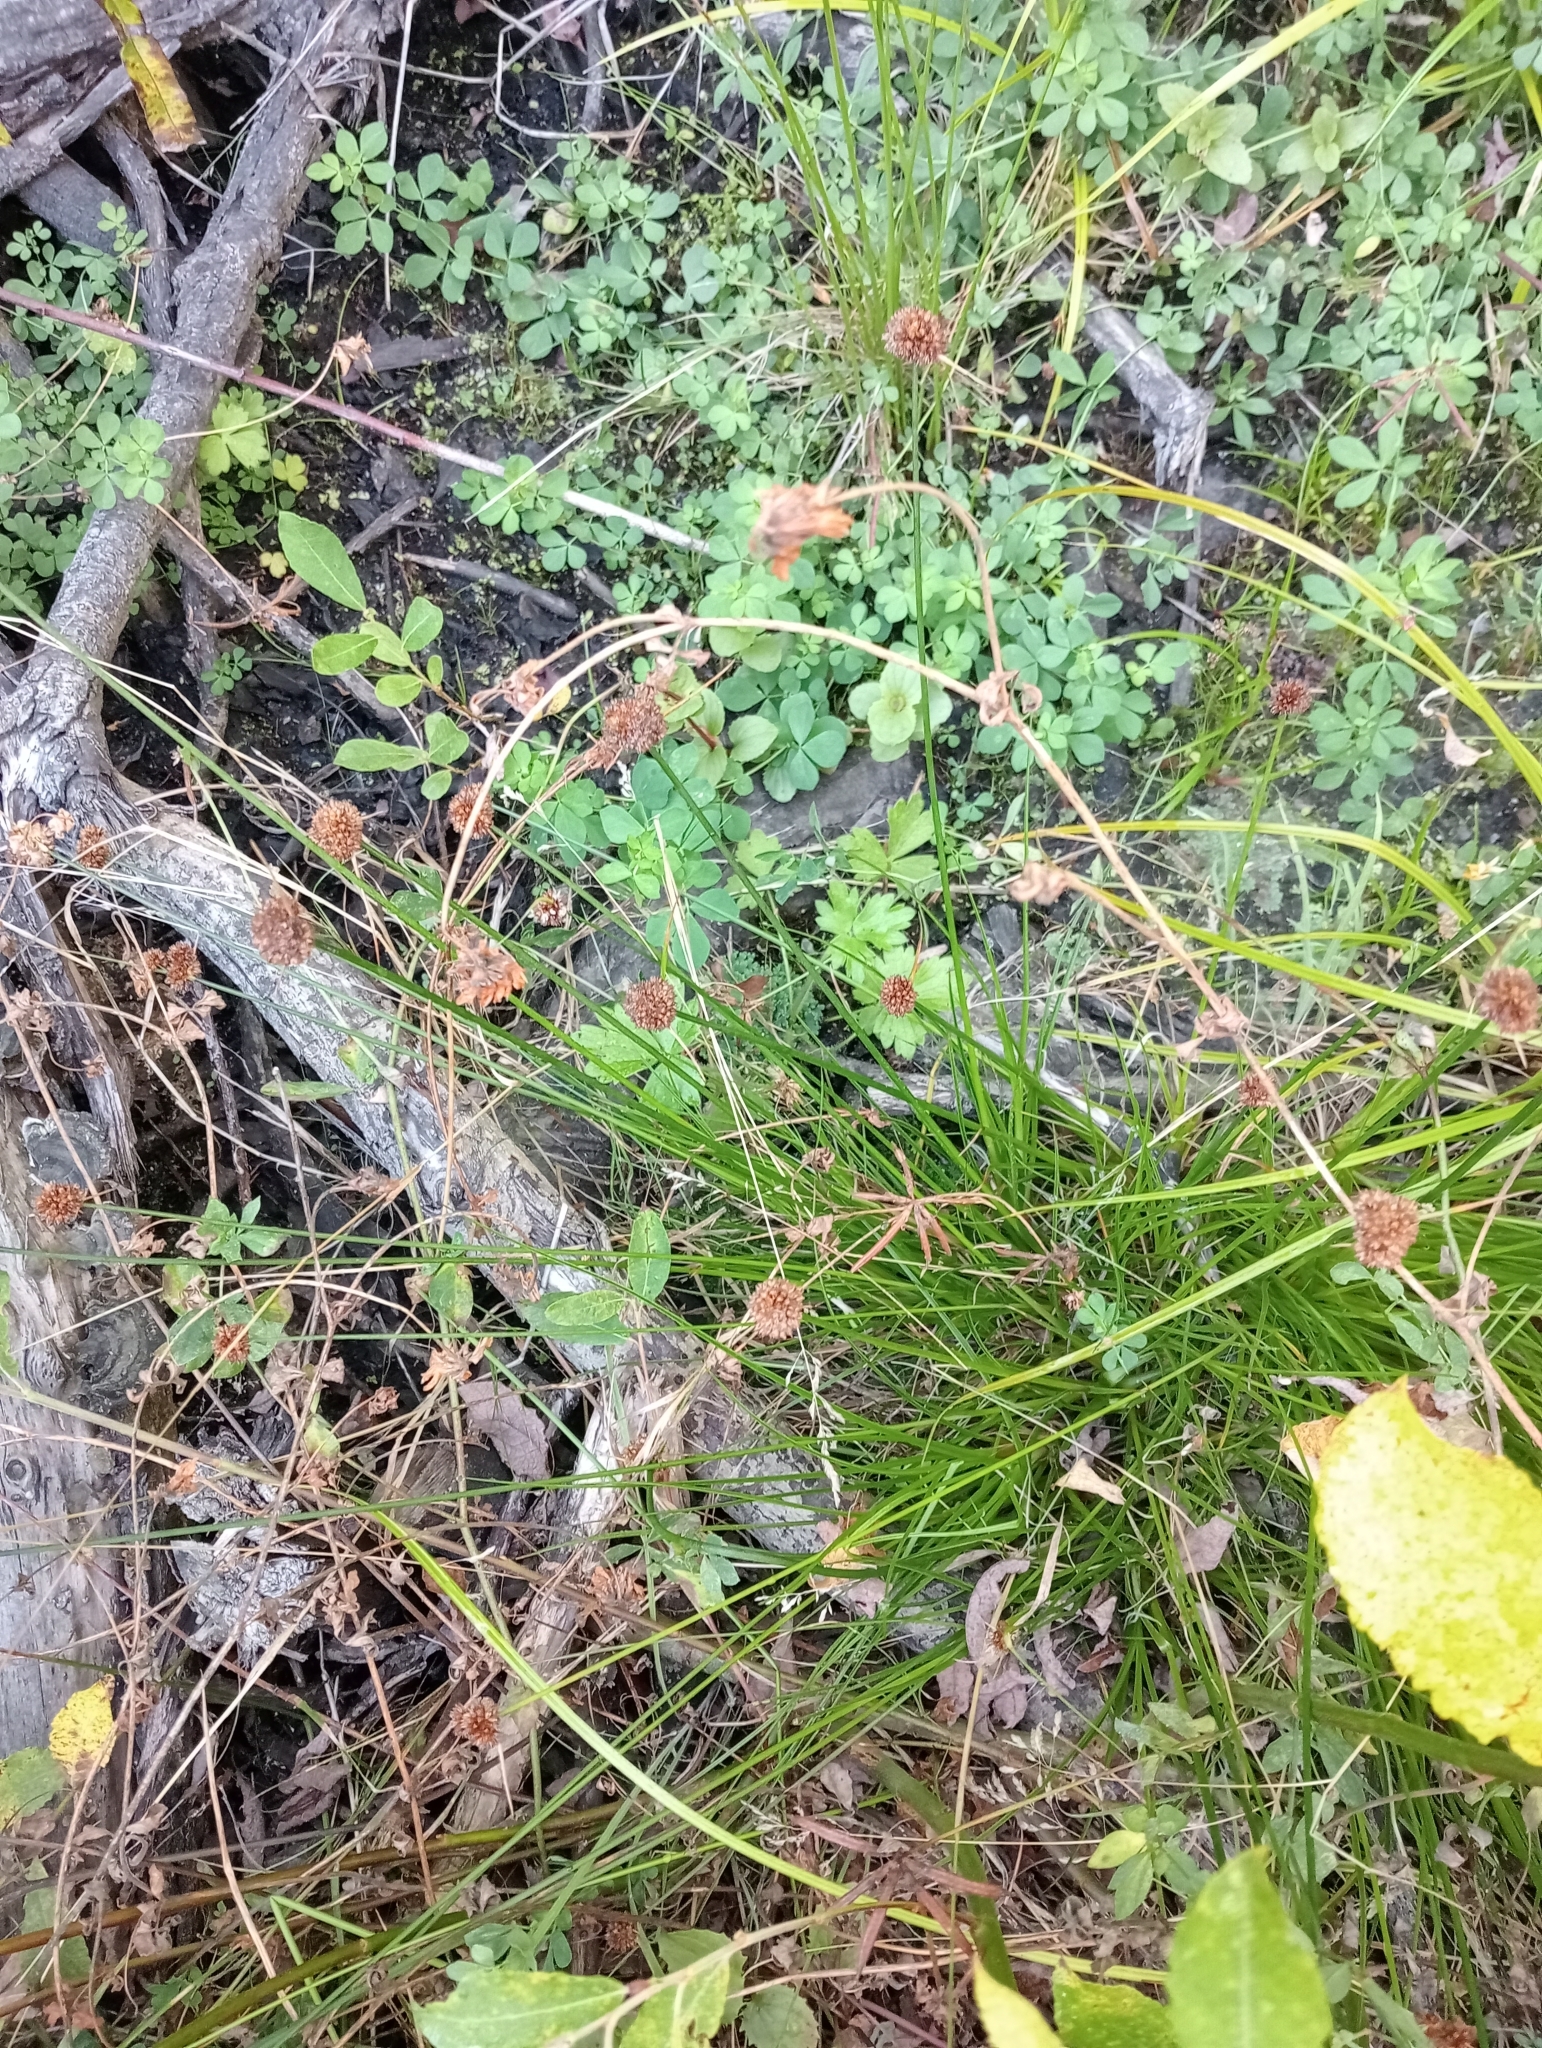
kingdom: Plantae
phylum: Tracheophyta
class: Liliopsida
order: Poales
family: Juncaceae
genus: Juncus
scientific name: Juncus caespiticius
